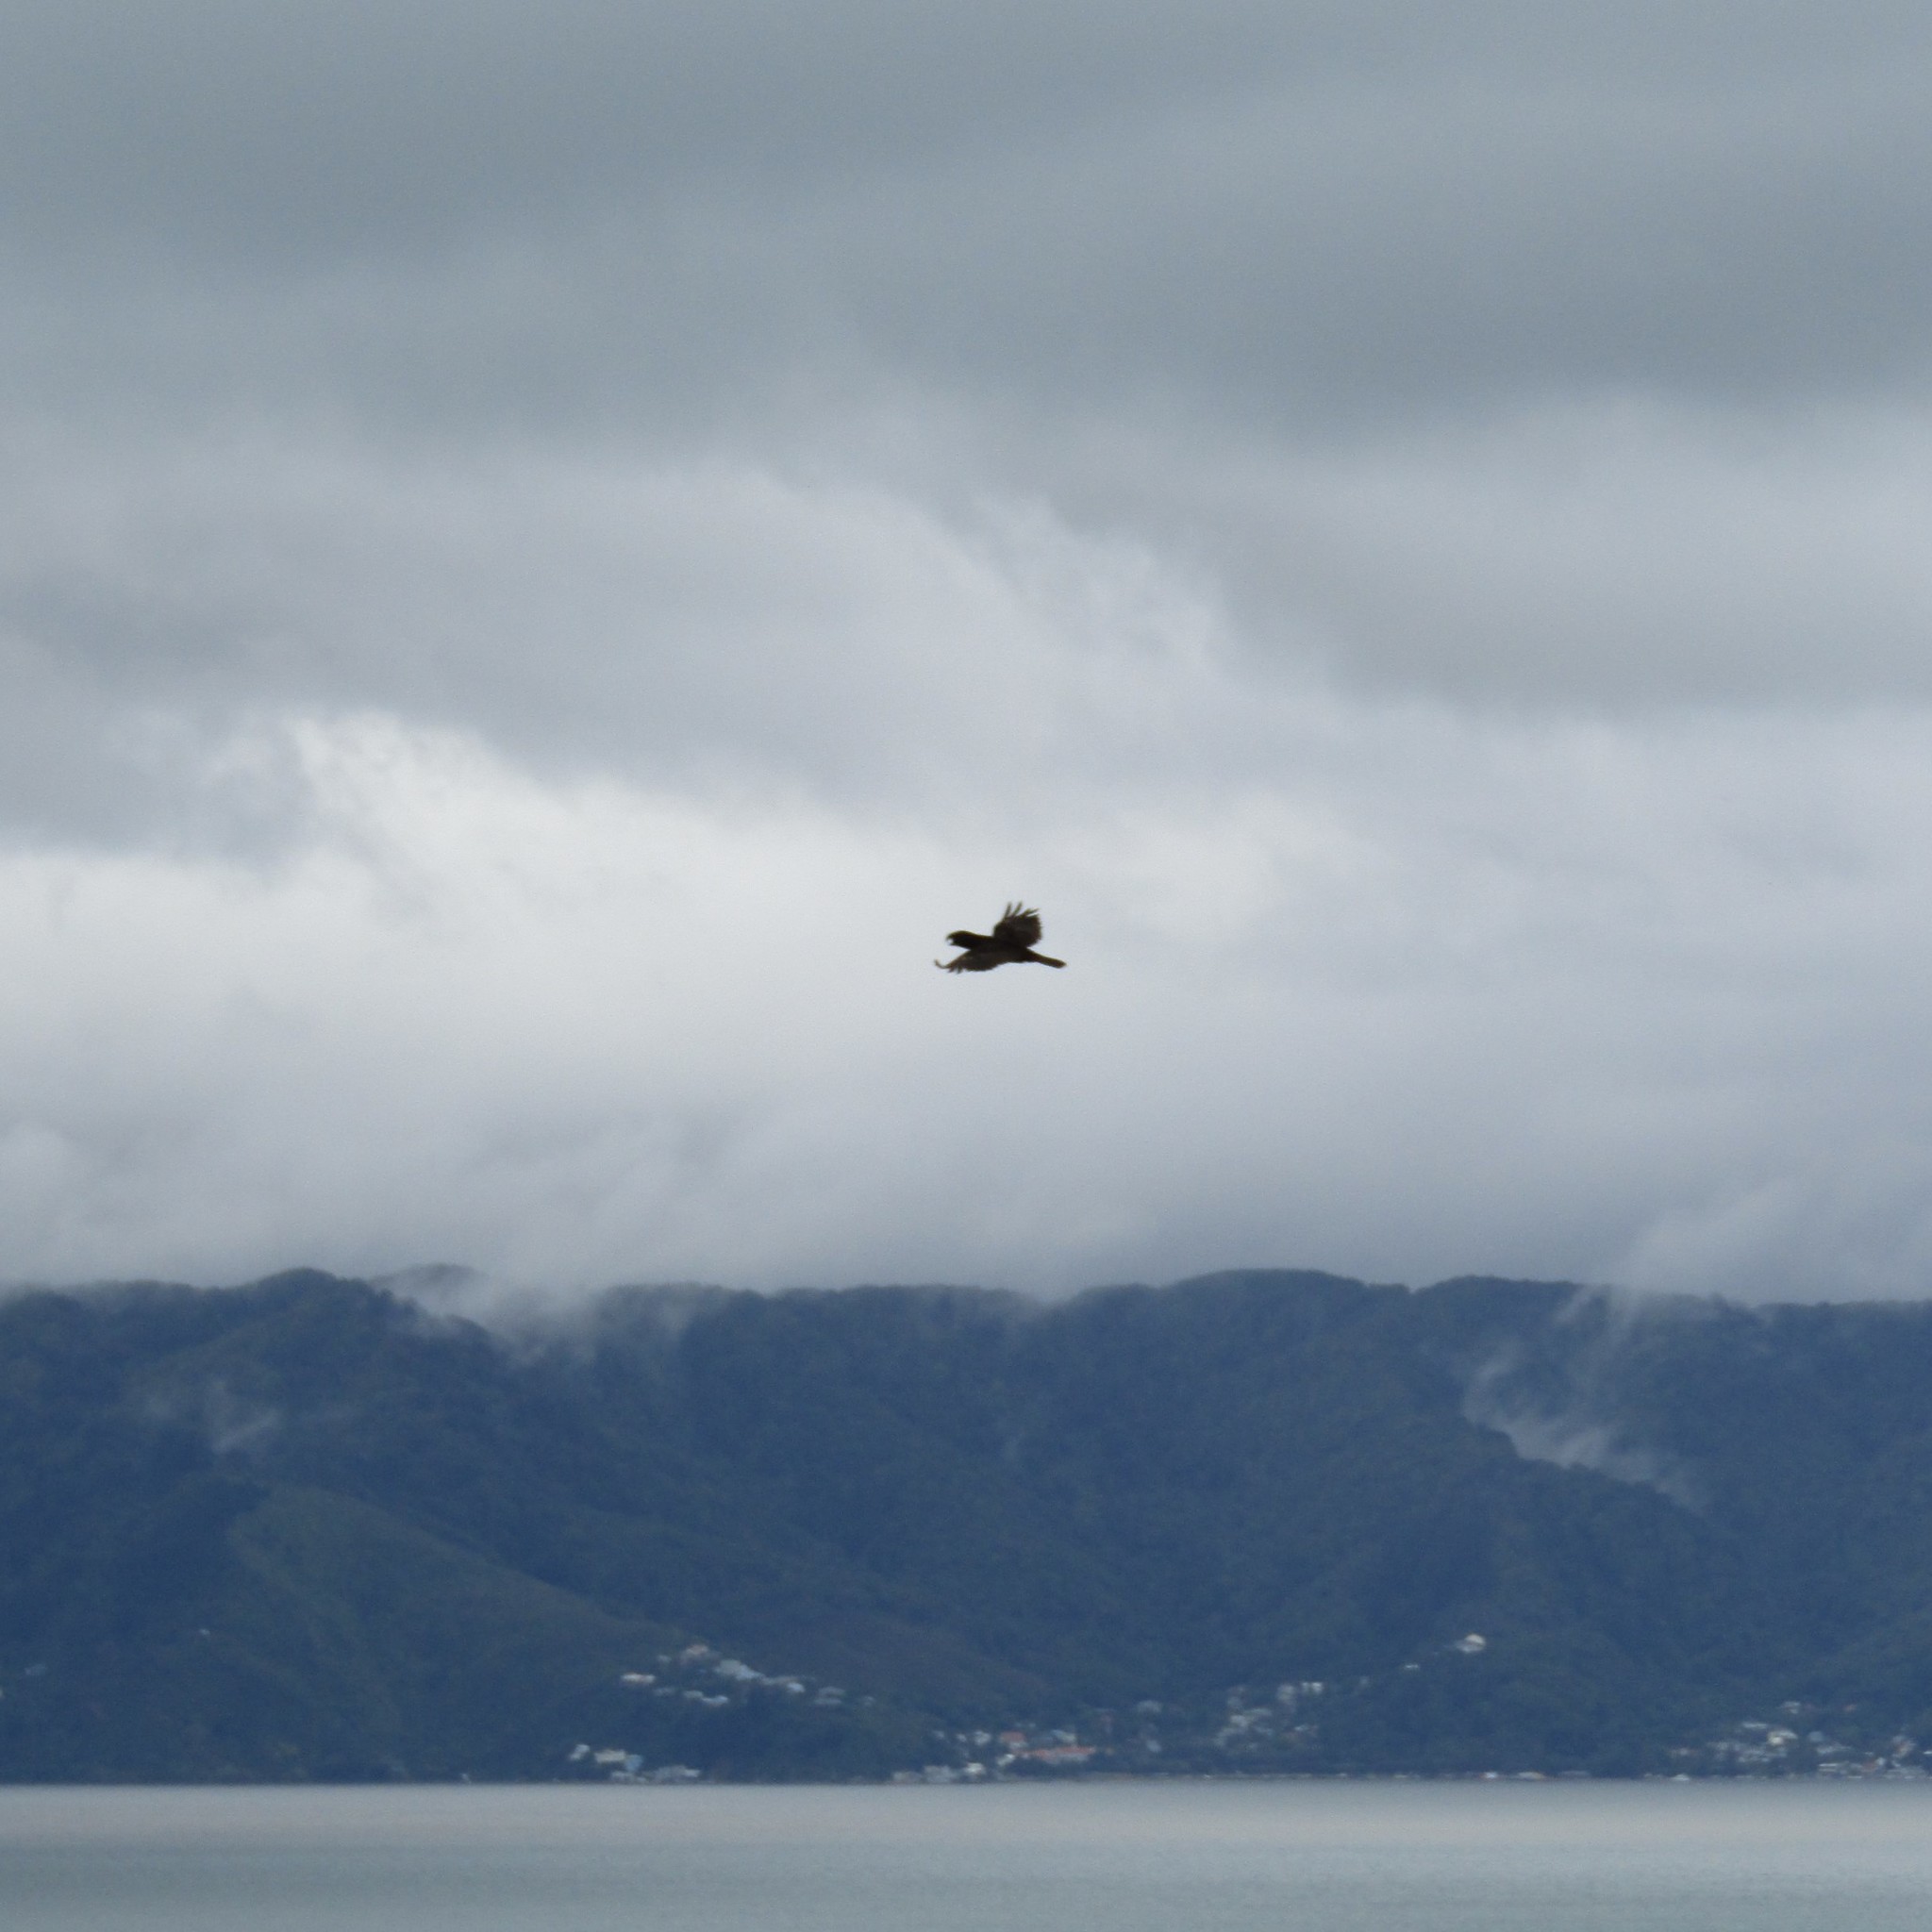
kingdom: Animalia
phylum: Chordata
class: Aves
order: Psittaciformes
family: Psittacidae
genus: Nestor
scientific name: Nestor meridionalis
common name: New zealand kaka
